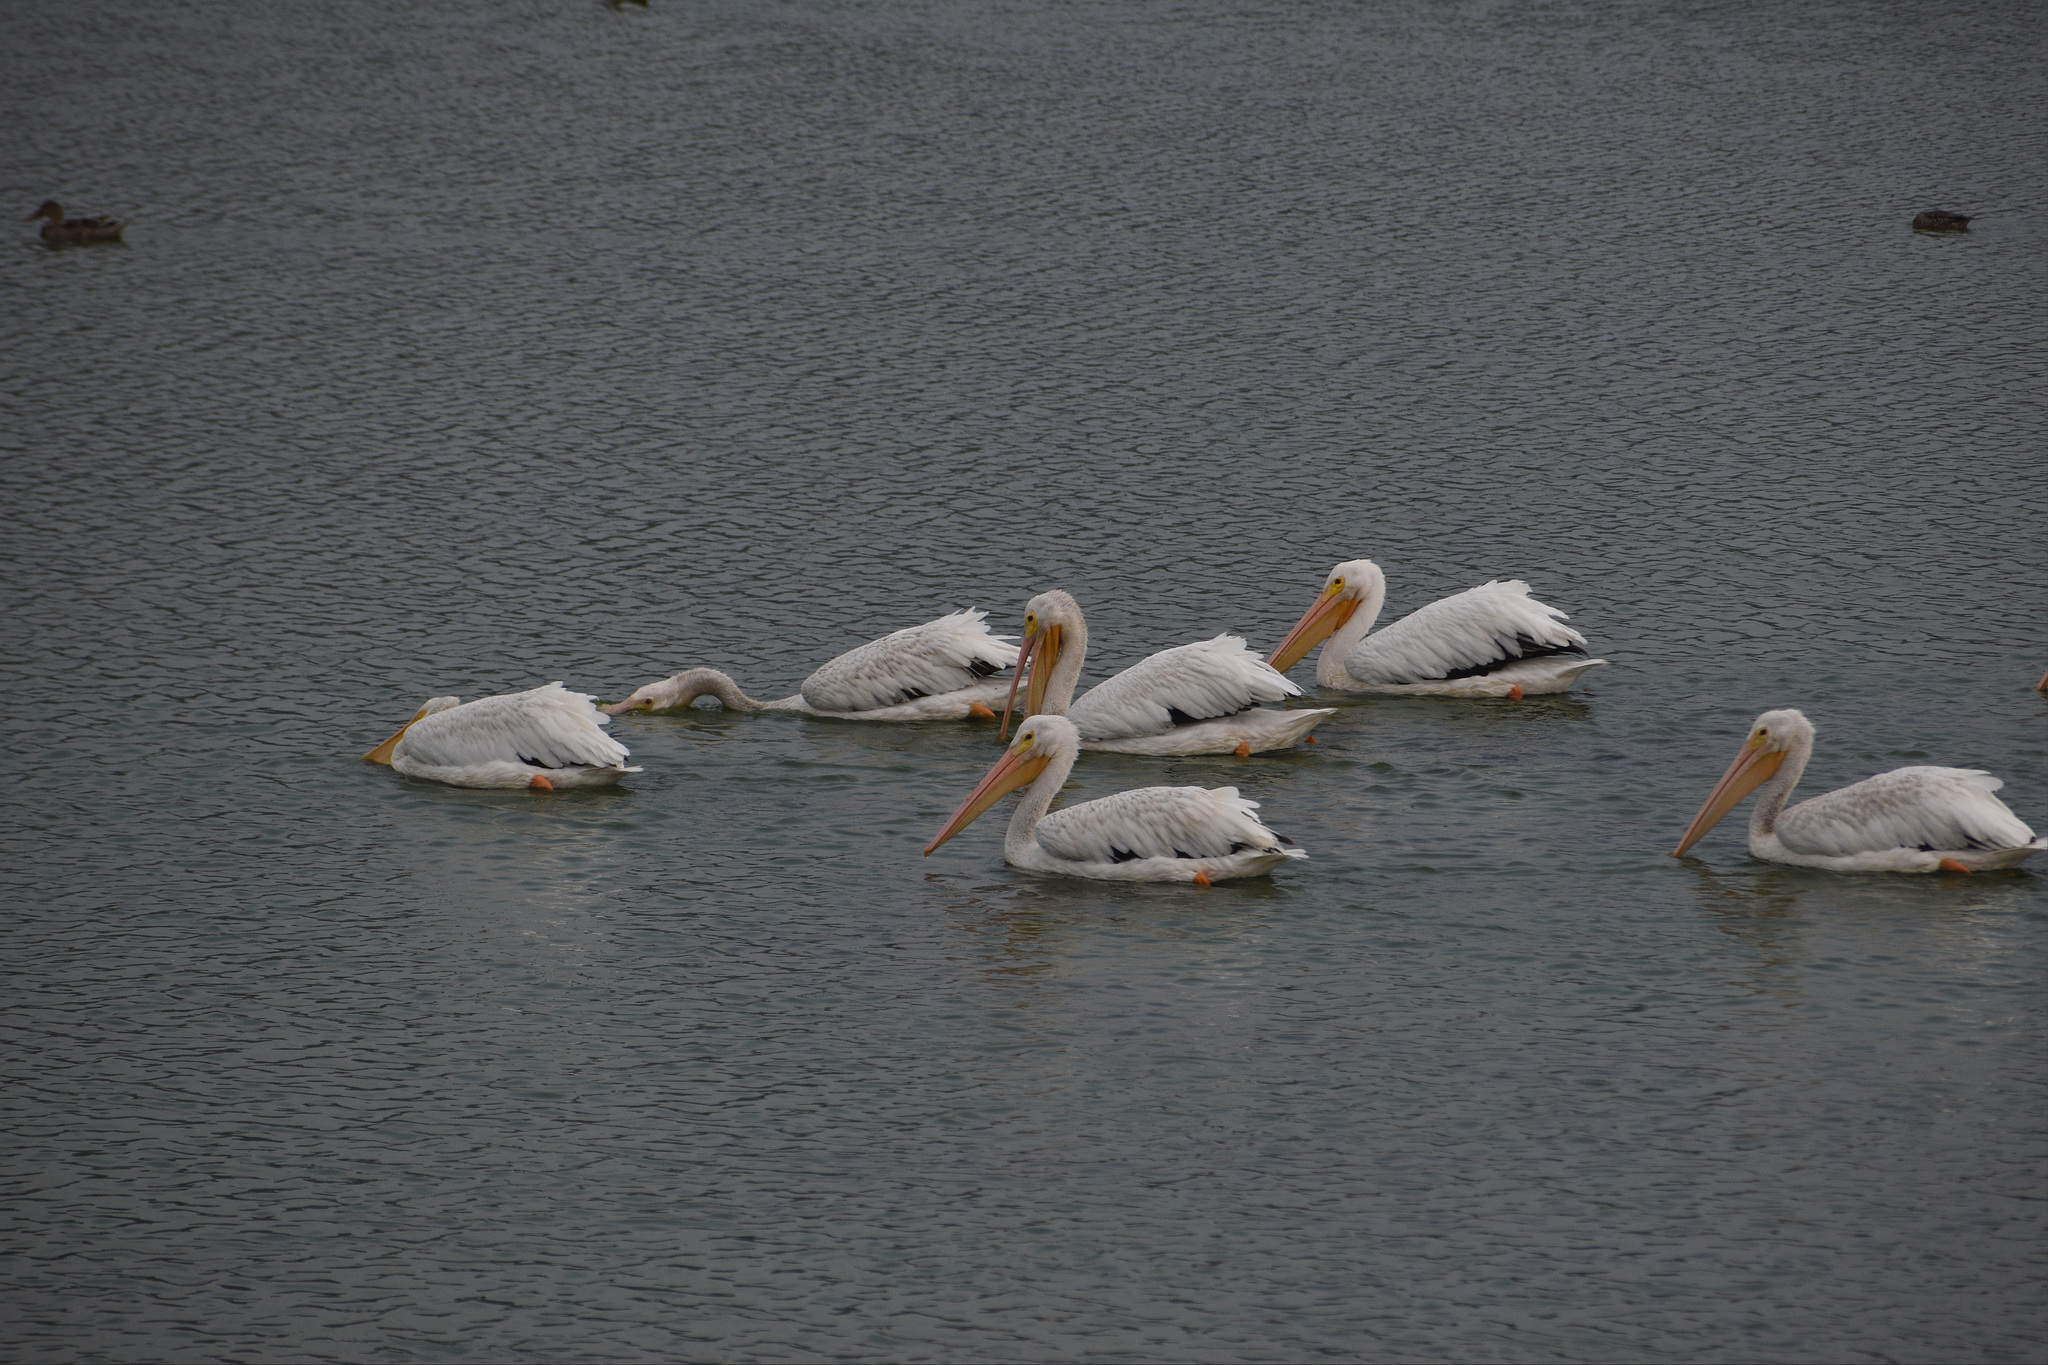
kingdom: Animalia
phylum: Chordata
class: Aves
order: Pelecaniformes
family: Pelecanidae
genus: Pelecanus
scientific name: Pelecanus erythrorhynchos
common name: American white pelican
